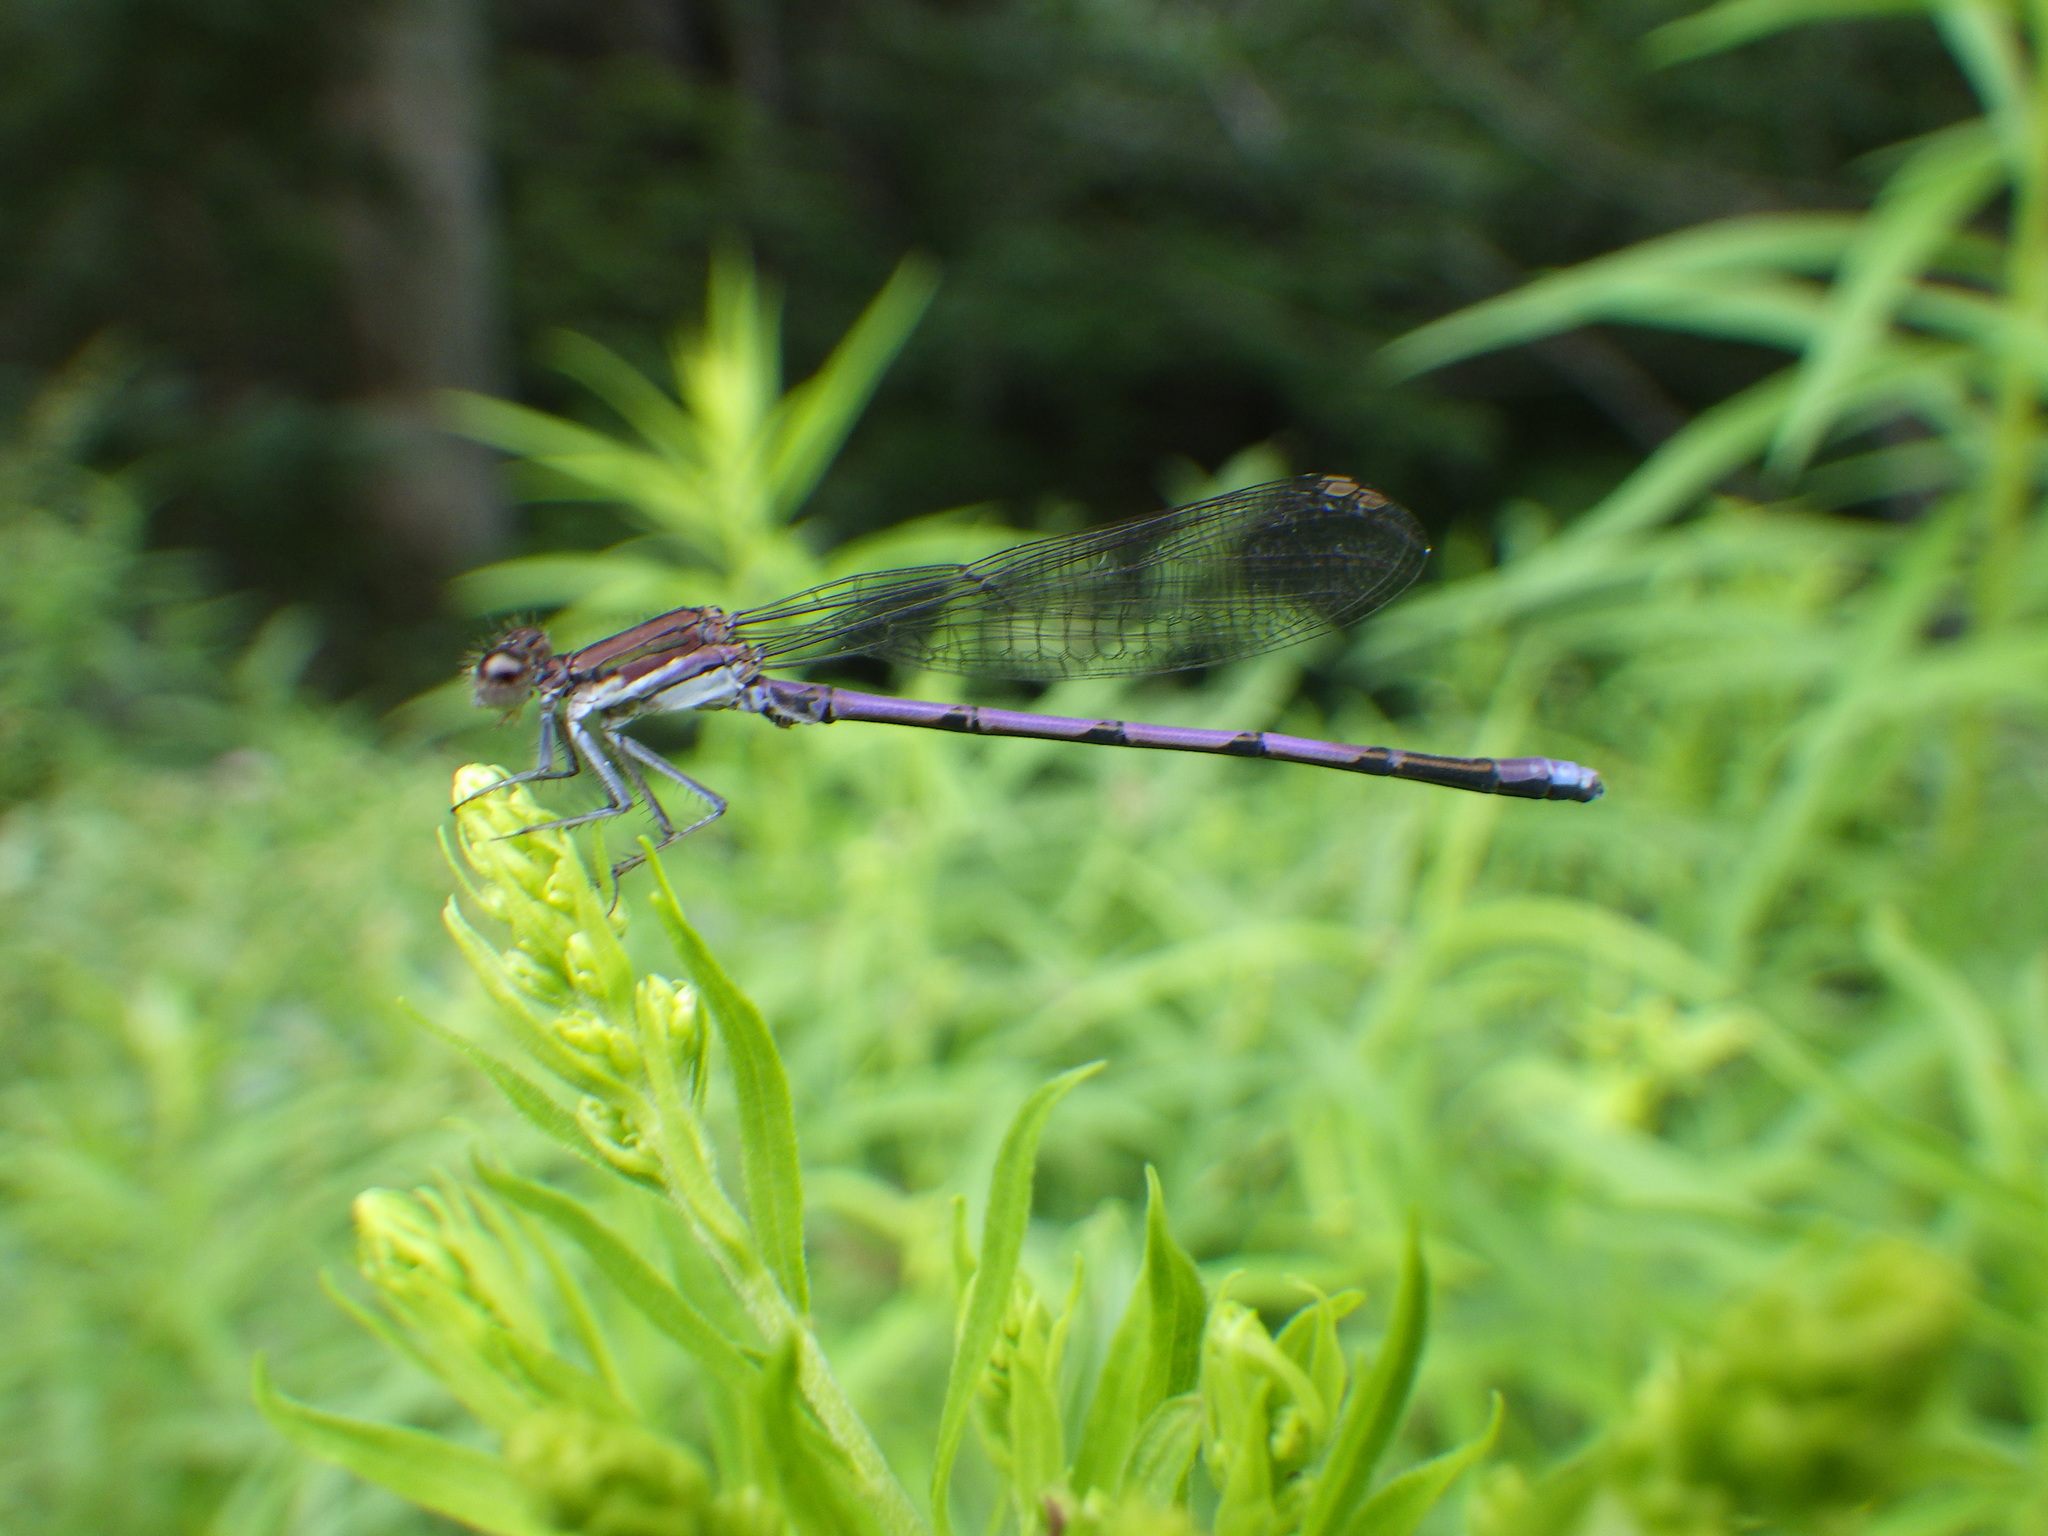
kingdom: Animalia
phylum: Arthropoda
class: Insecta
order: Odonata
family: Coenagrionidae
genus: Argia
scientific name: Argia fumipennis
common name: Variable dancer
